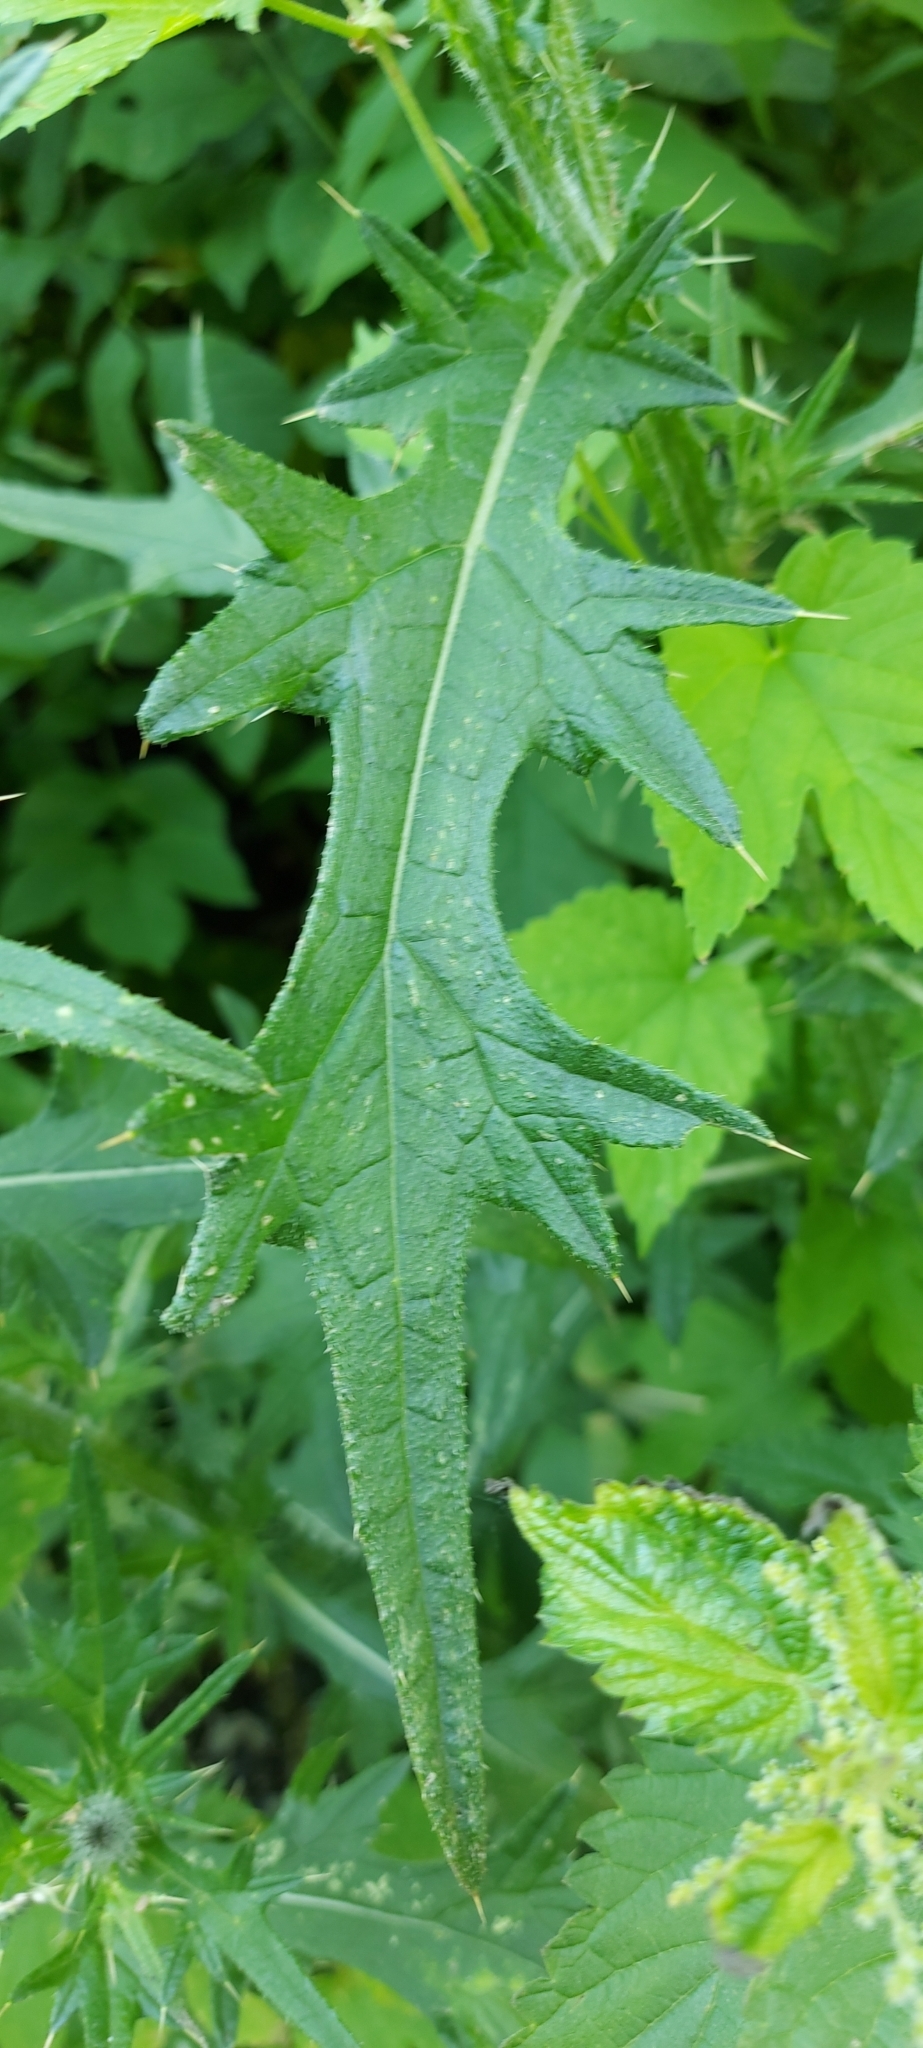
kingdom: Plantae
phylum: Tracheophyta
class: Magnoliopsida
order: Asterales
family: Asteraceae
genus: Cirsium
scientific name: Cirsium vulgare
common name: Bull thistle
